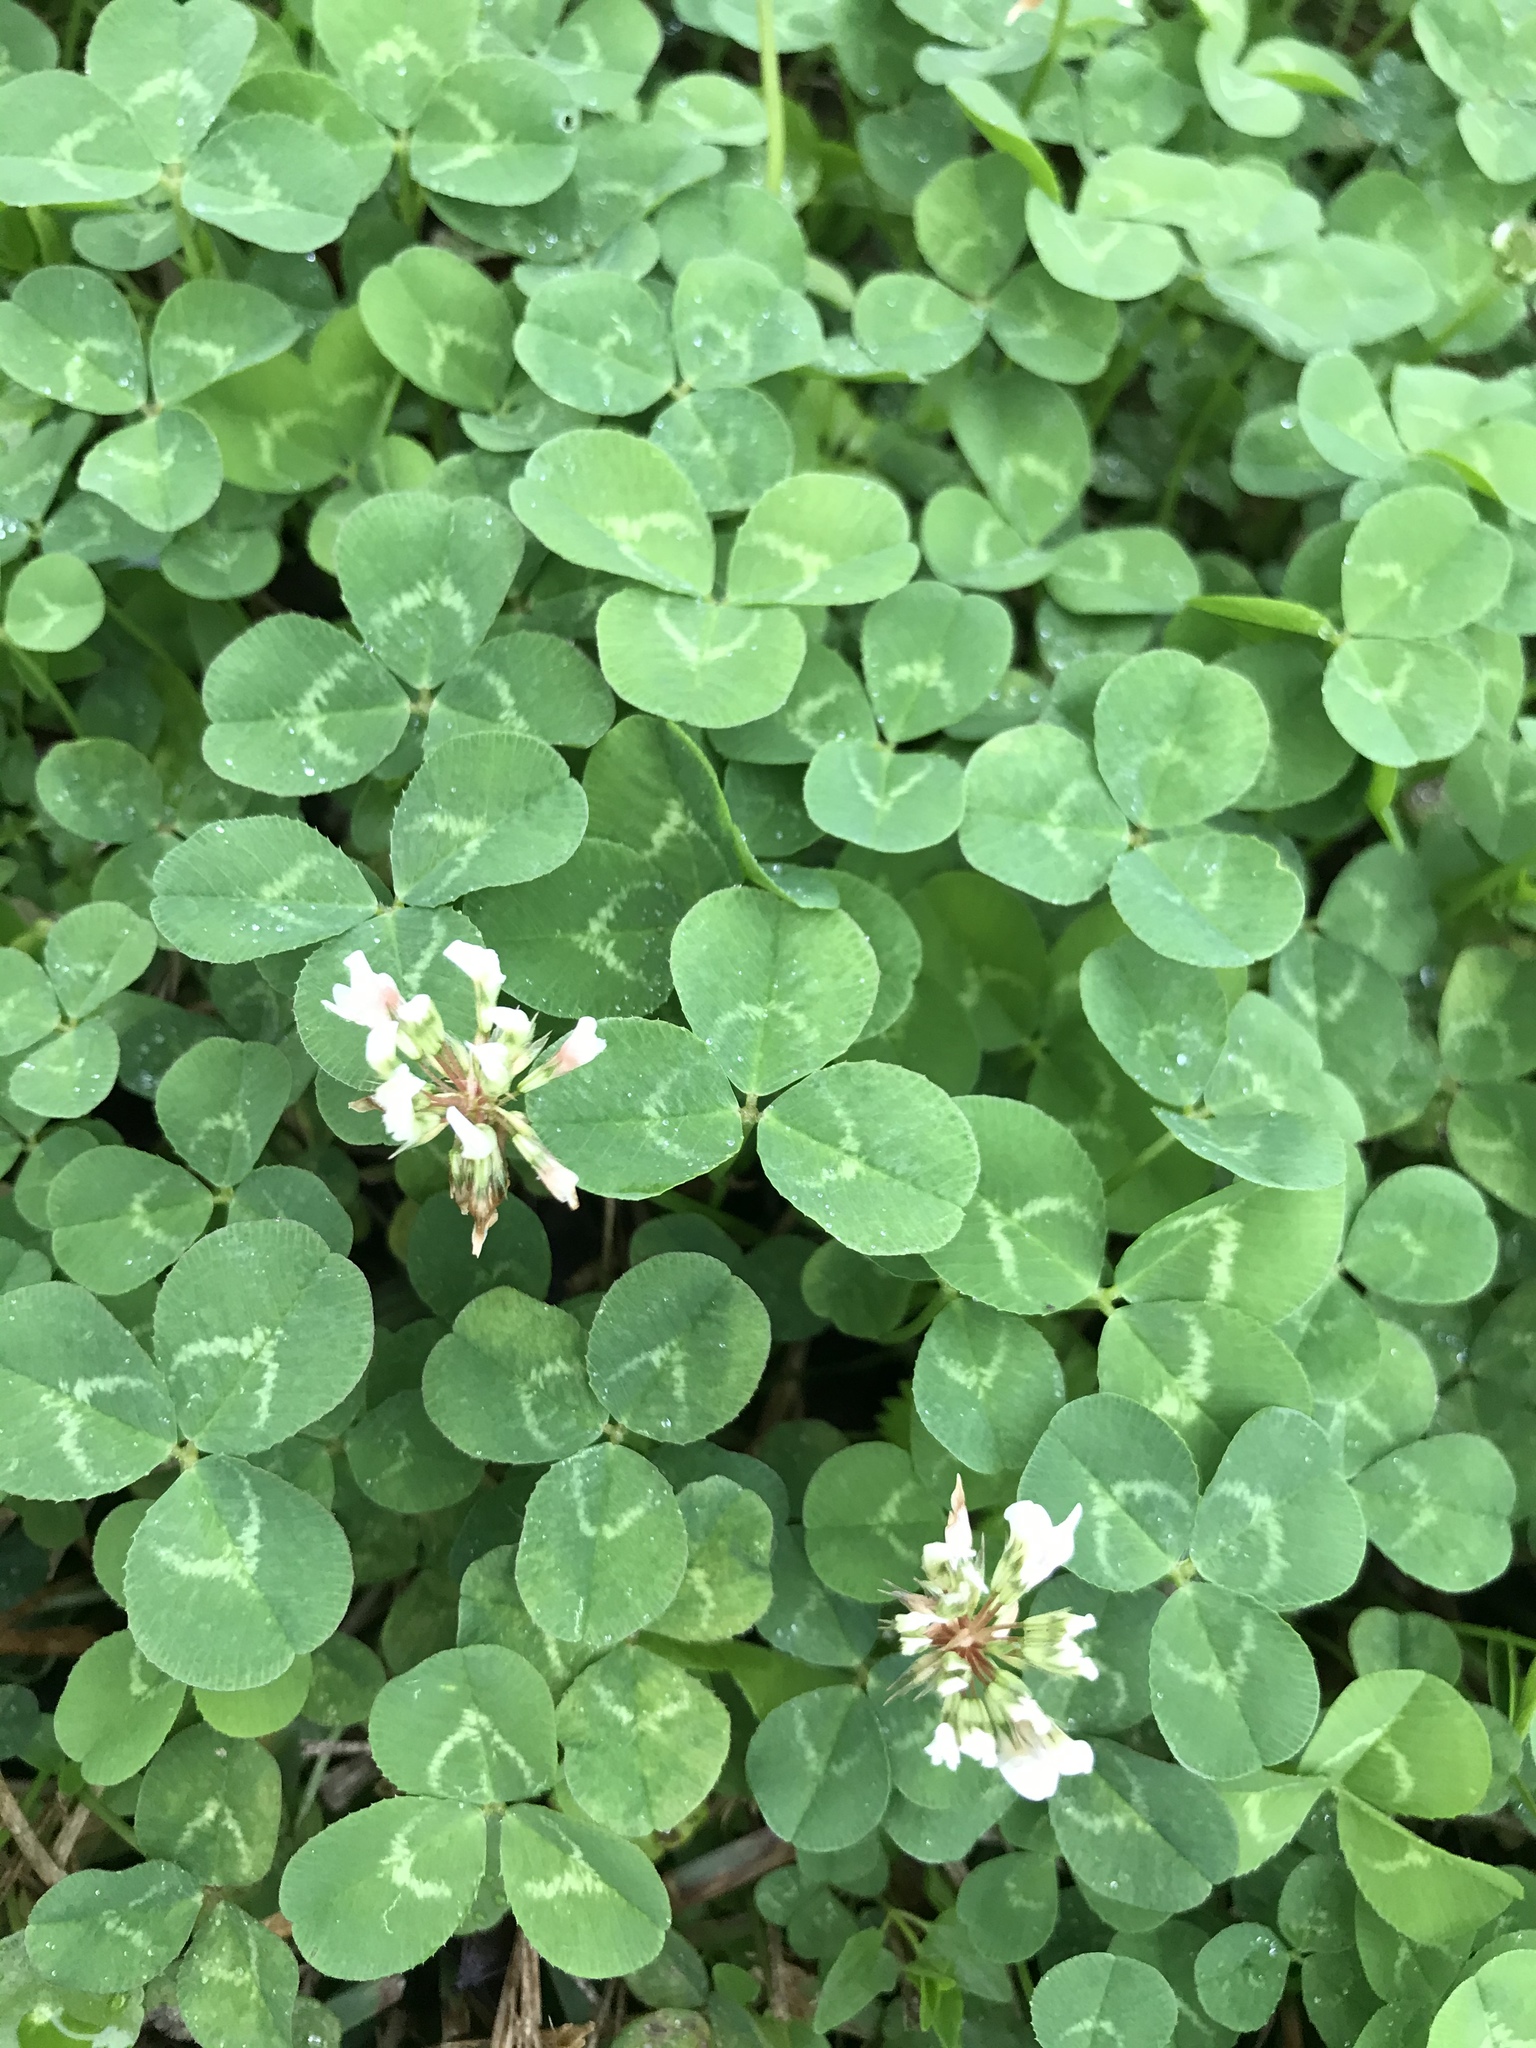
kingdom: Plantae
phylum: Tracheophyta
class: Magnoliopsida
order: Fabales
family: Fabaceae
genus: Trifolium
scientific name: Trifolium repens
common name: White clover
